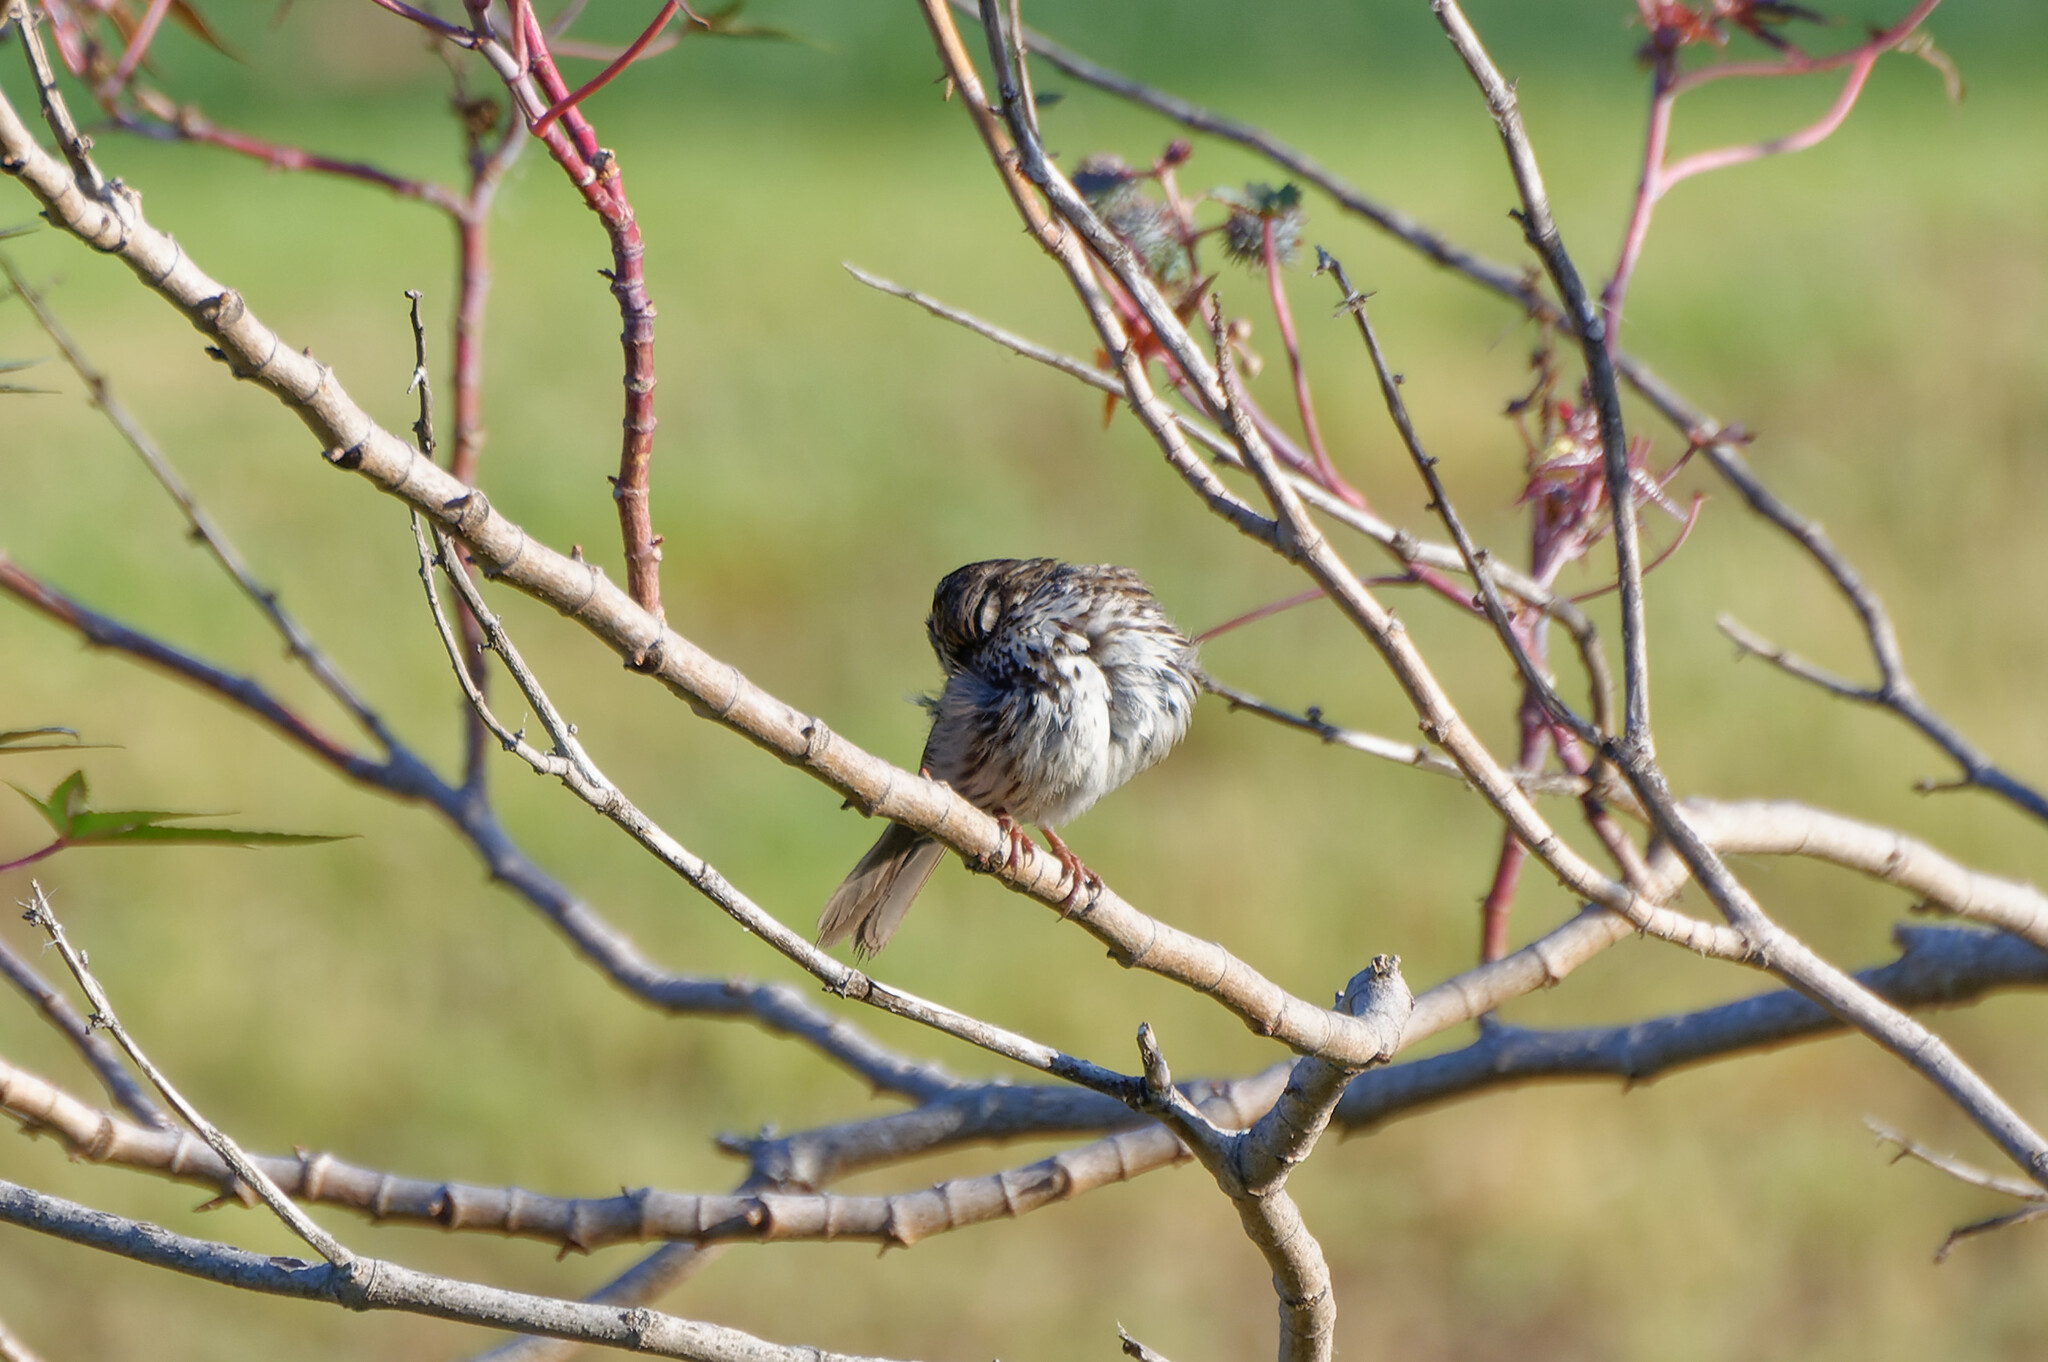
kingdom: Animalia
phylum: Chordata
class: Aves
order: Passeriformes
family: Passerellidae
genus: Melospiza
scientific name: Melospiza melodia
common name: Song sparrow
